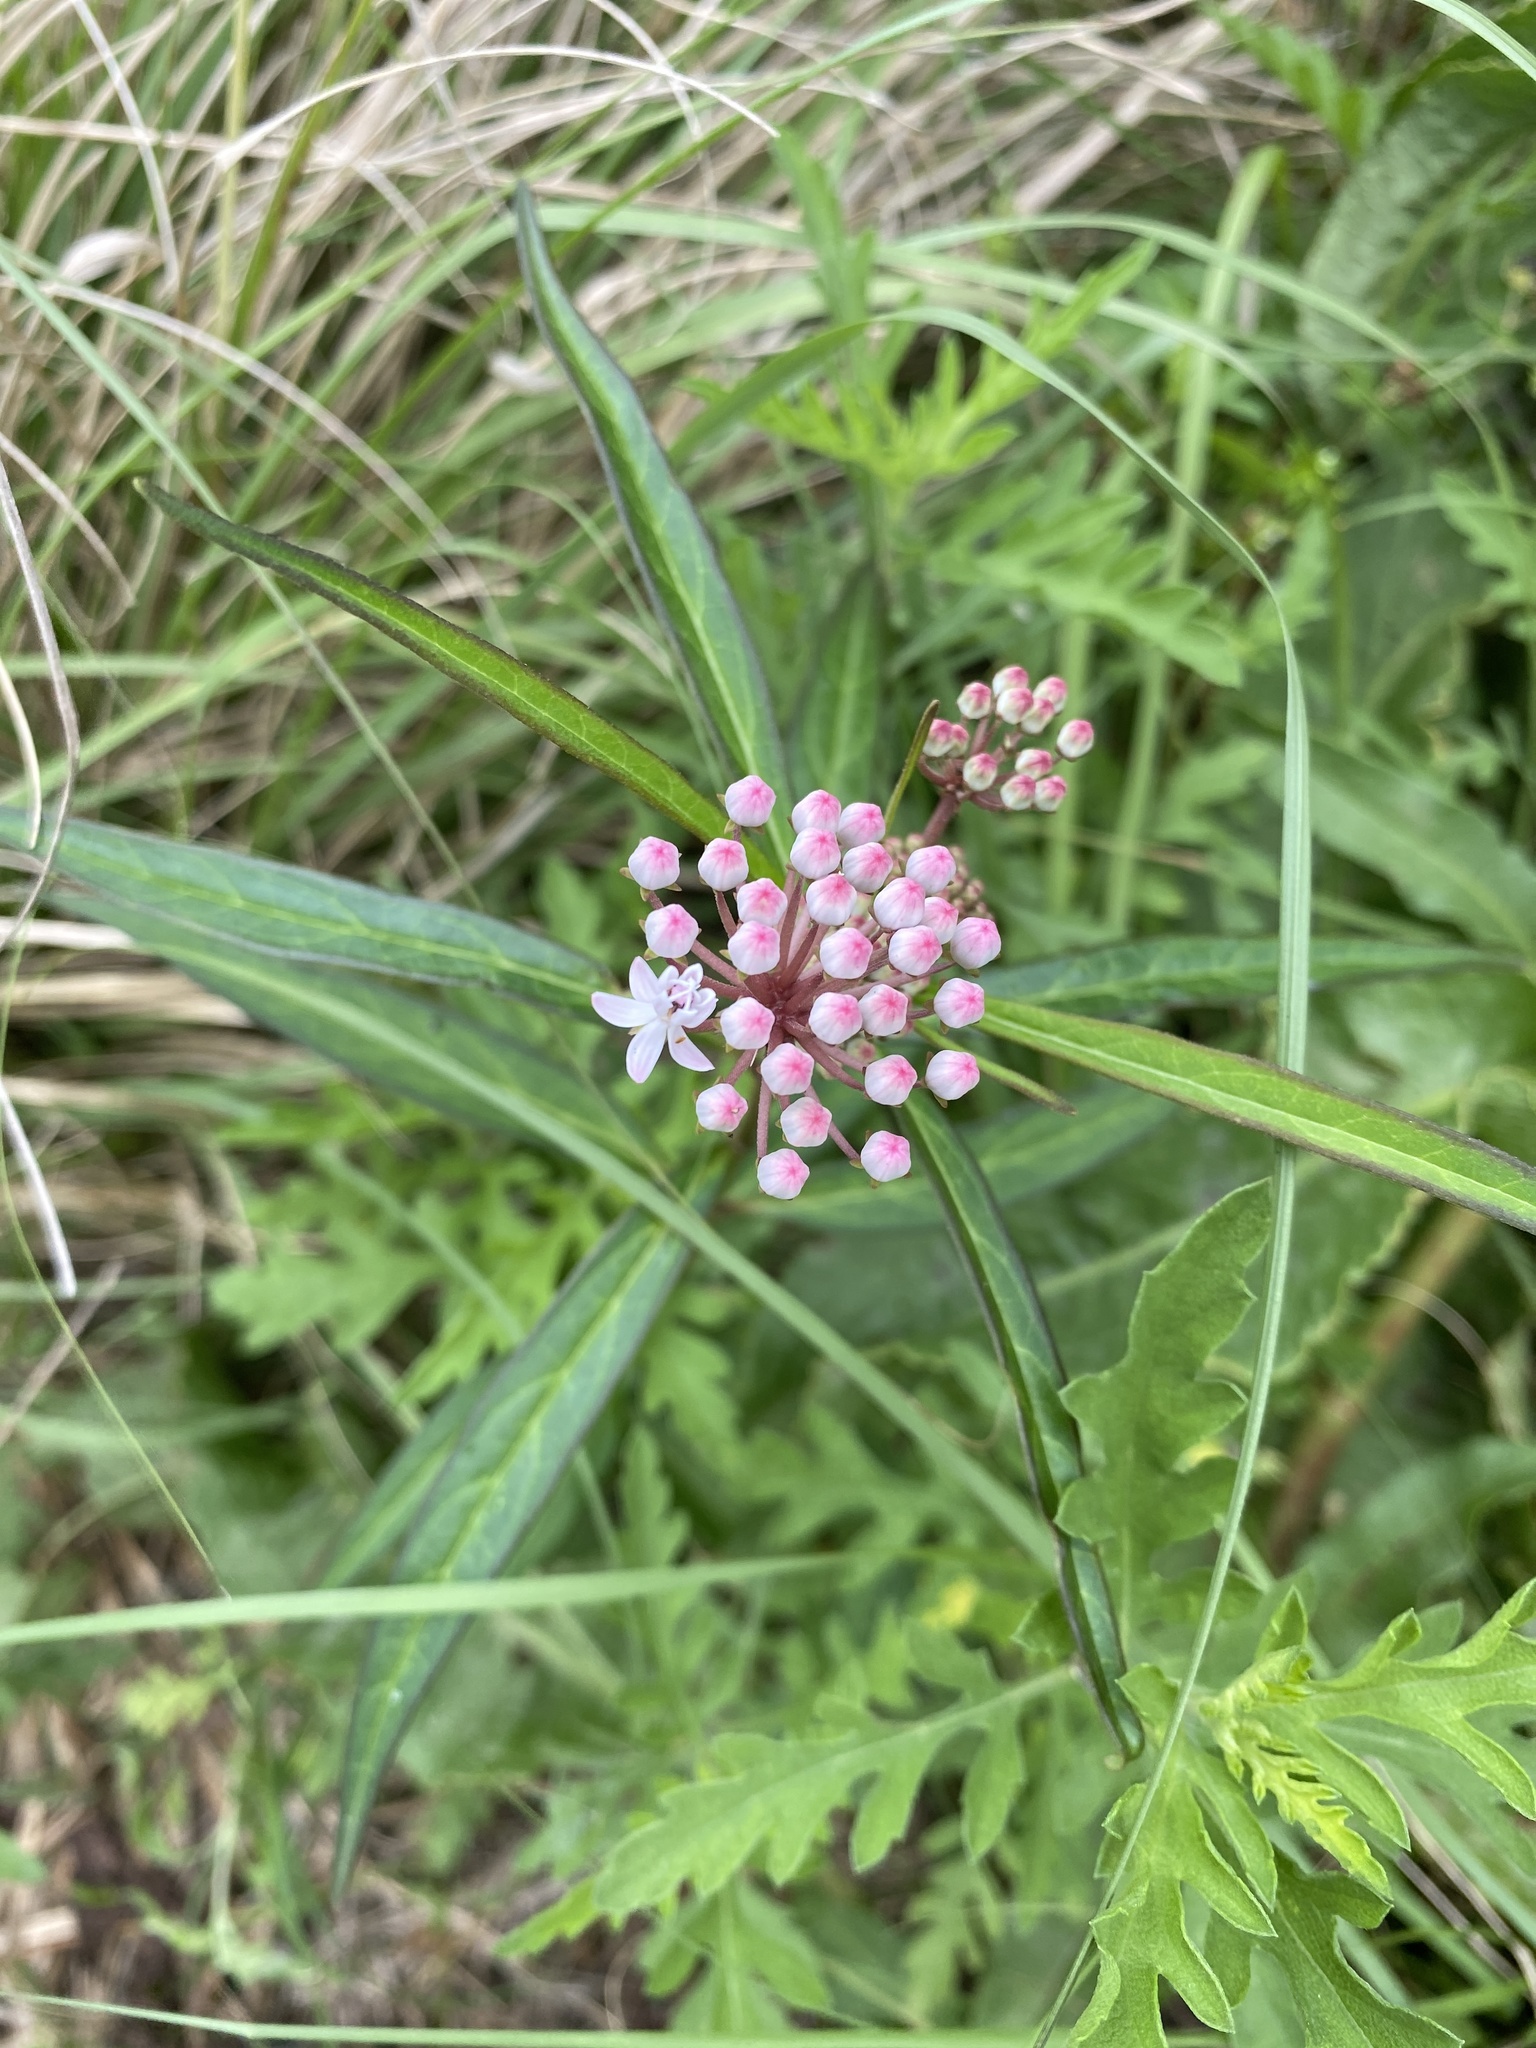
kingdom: Plantae
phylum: Tracheophyta
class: Magnoliopsida
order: Gentianales
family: Apocynaceae
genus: Asclepias
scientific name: Asclepias perennis
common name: Smooth-seed milkweed
